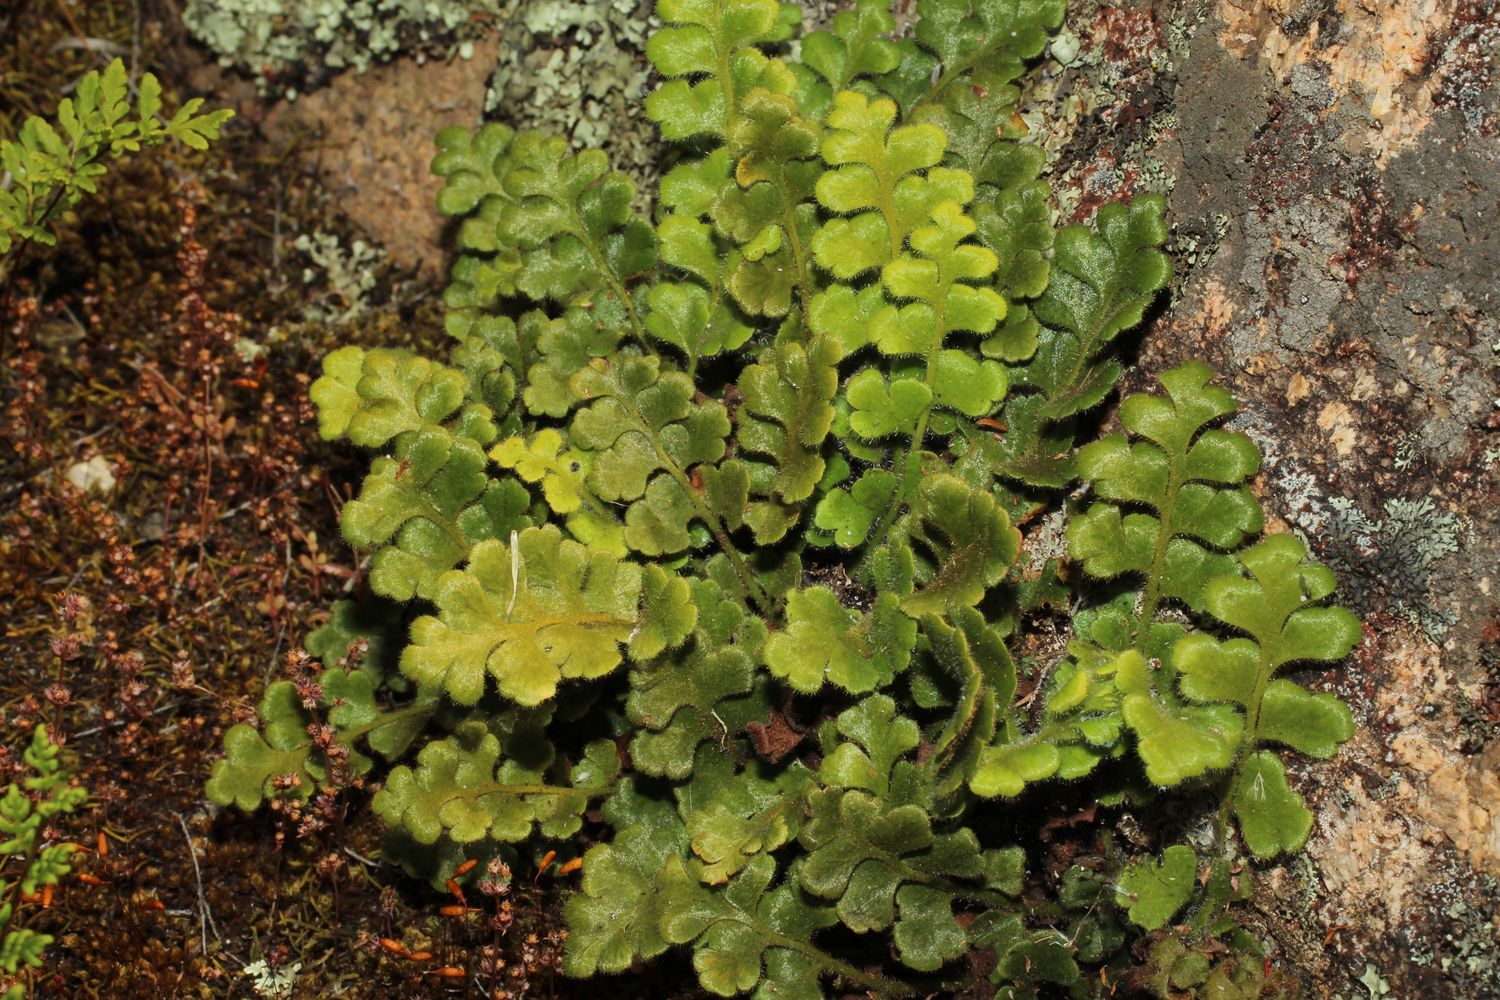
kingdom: Plantae
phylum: Tracheophyta
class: Polypodiopsida
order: Polypodiales
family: Aspleniaceae
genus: Asplenium
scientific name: Asplenium subglandulosum
